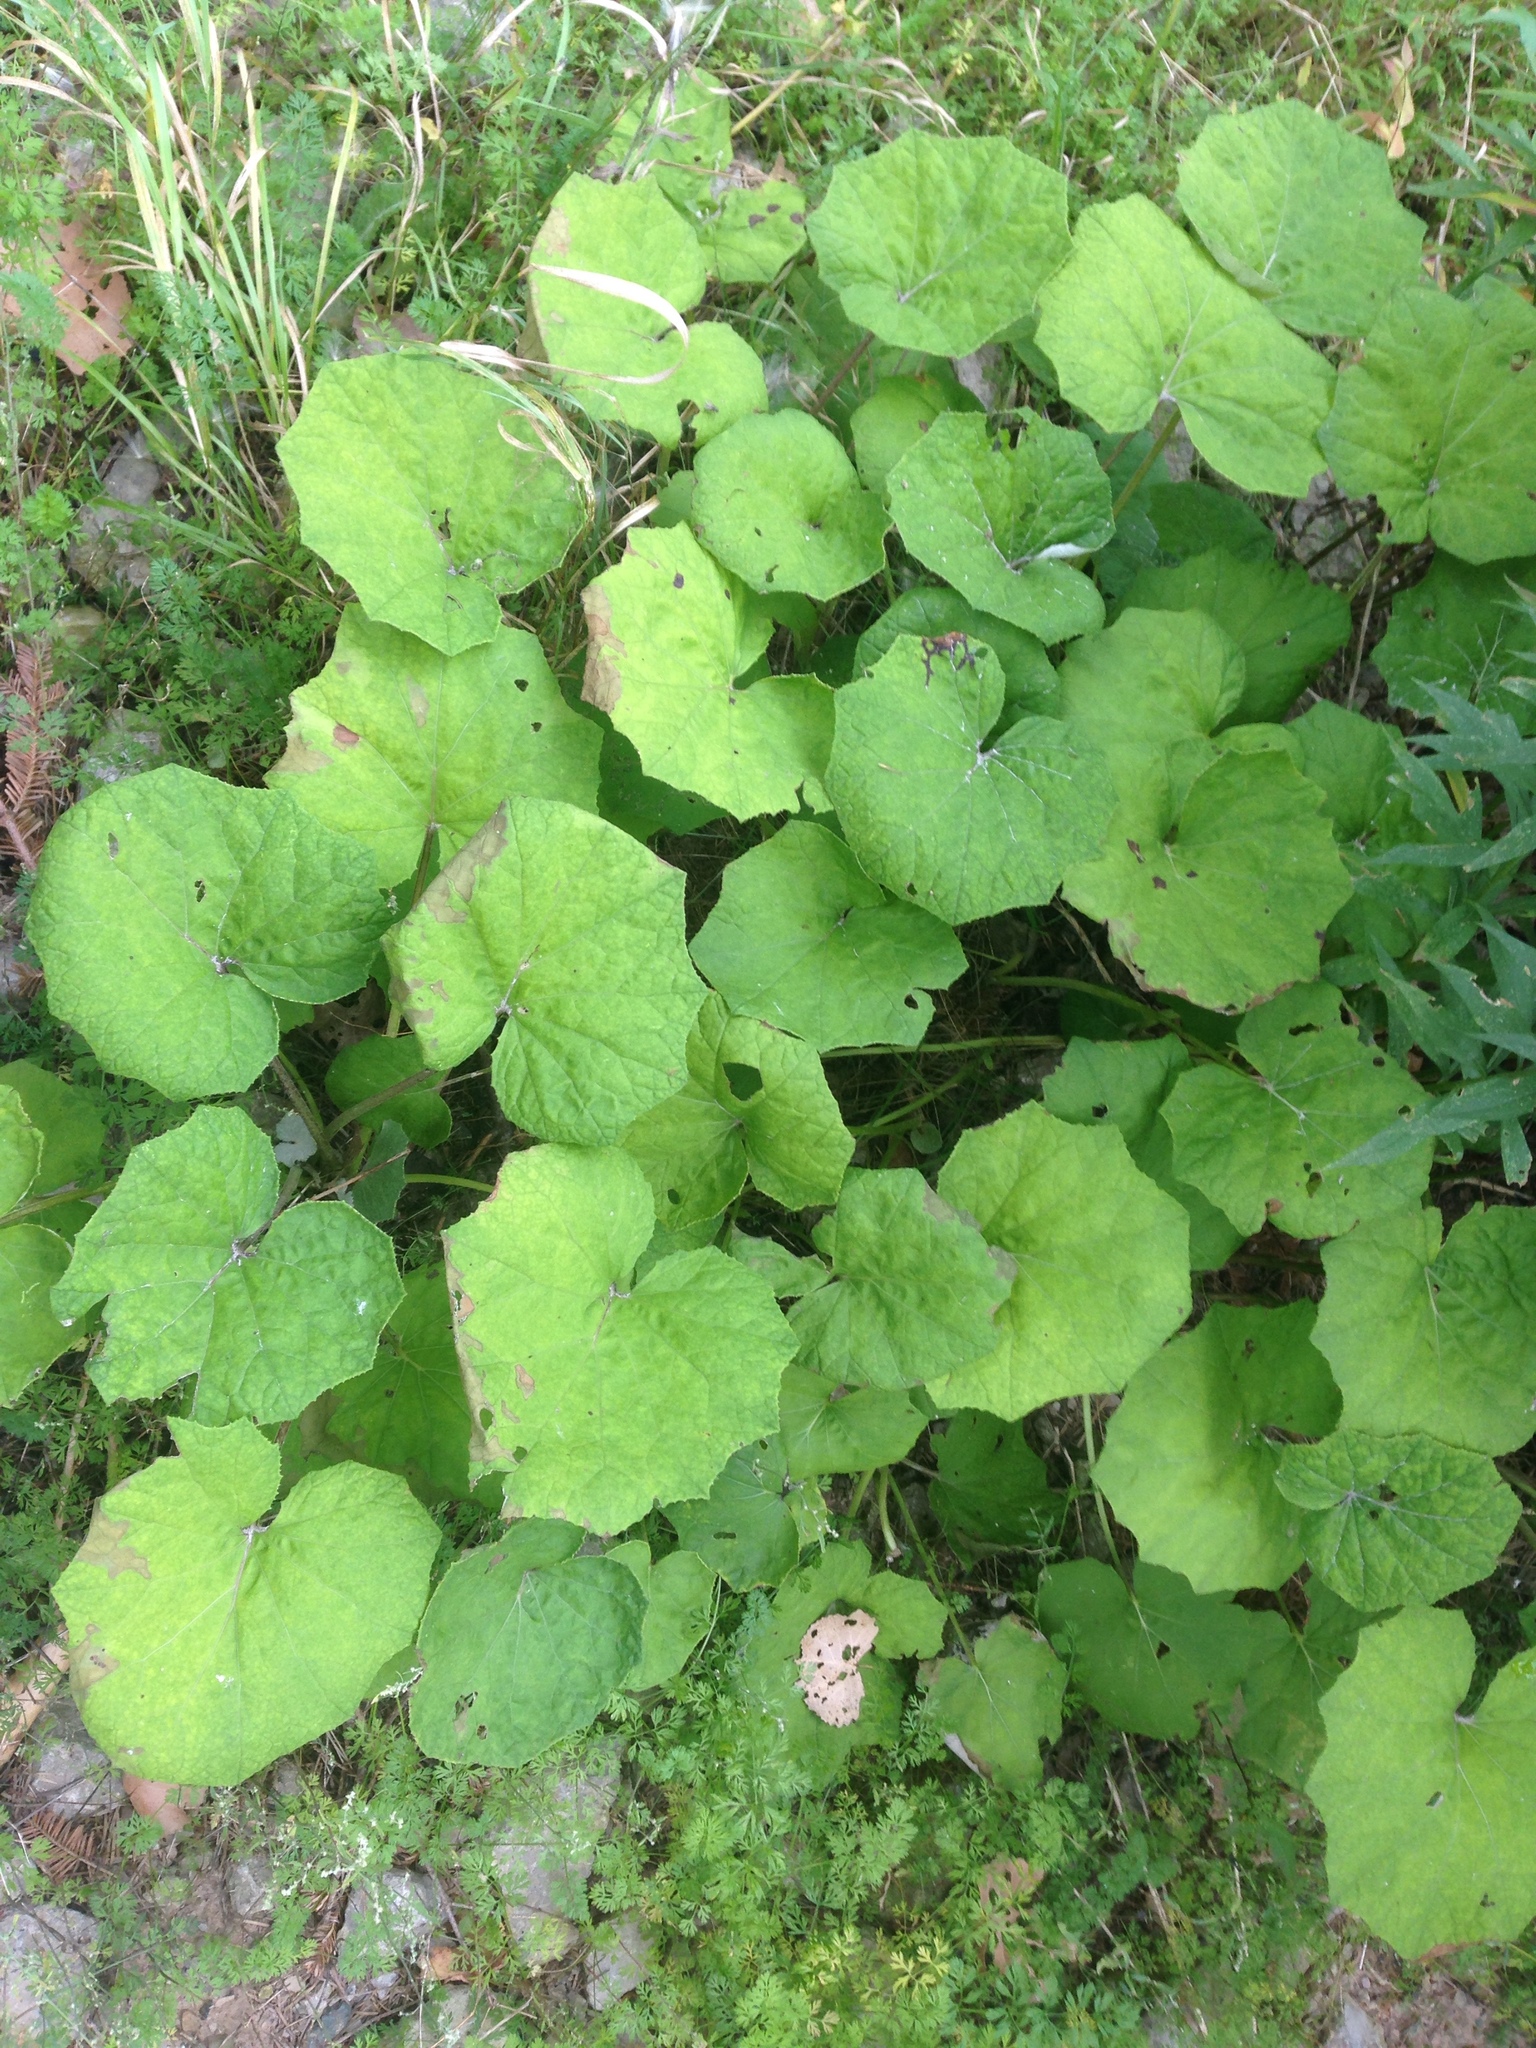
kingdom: Plantae
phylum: Tracheophyta
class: Magnoliopsida
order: Asterales
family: Asteraceae
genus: Tussilago
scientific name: Tussilago farfara
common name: Coltsfoot
